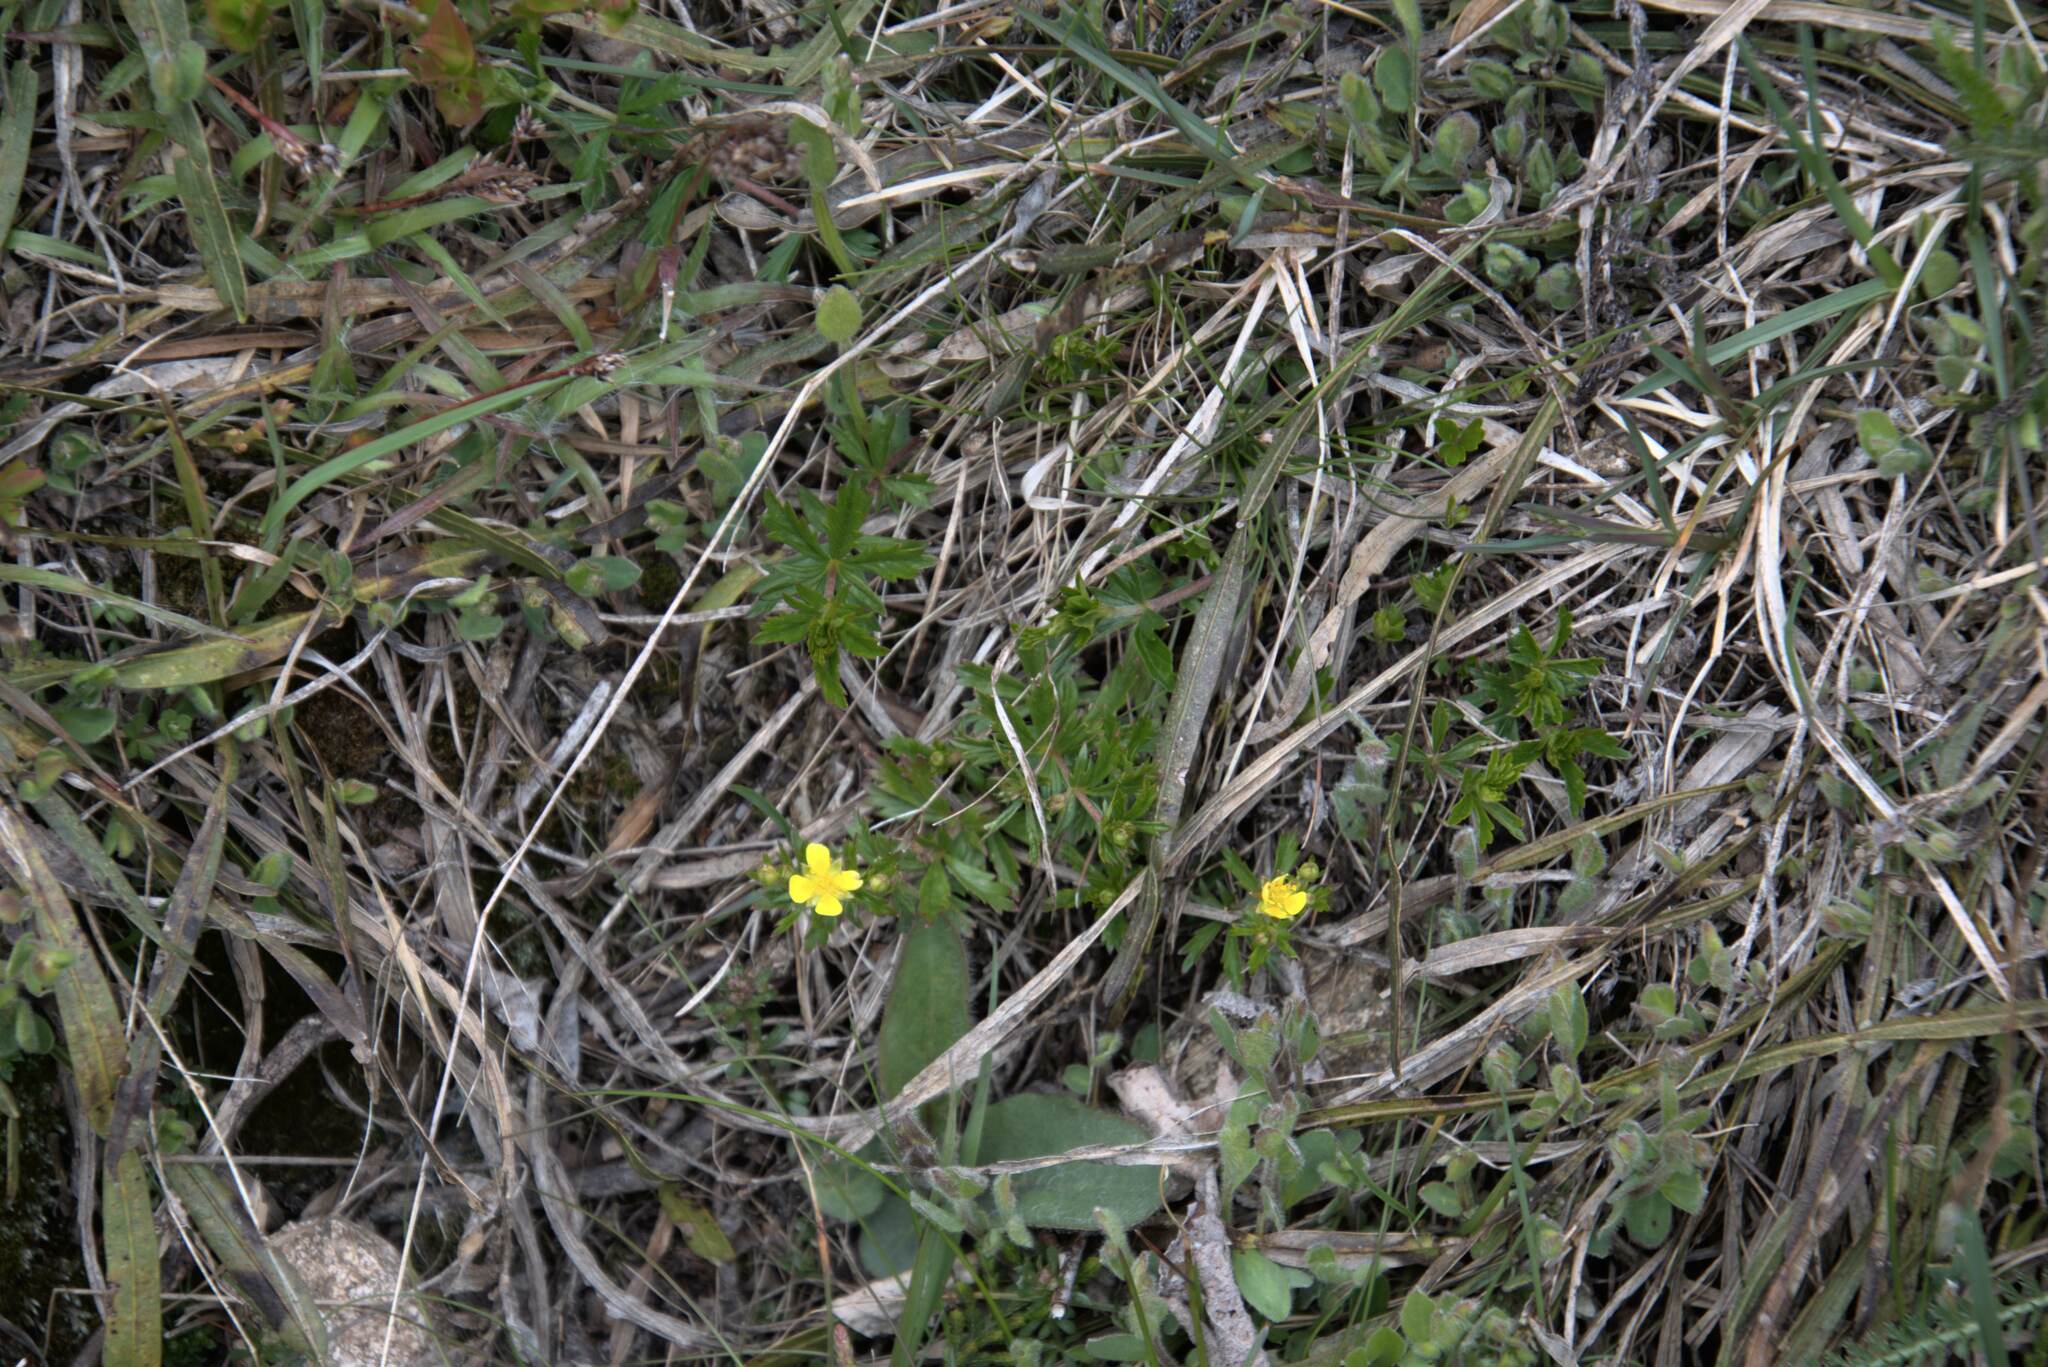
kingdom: Plantae
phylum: Tracheophyta
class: Magnoliopsida
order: Rosales
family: Rosaceae
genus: Potentilla
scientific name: Potentilla erecta
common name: Tormentil
